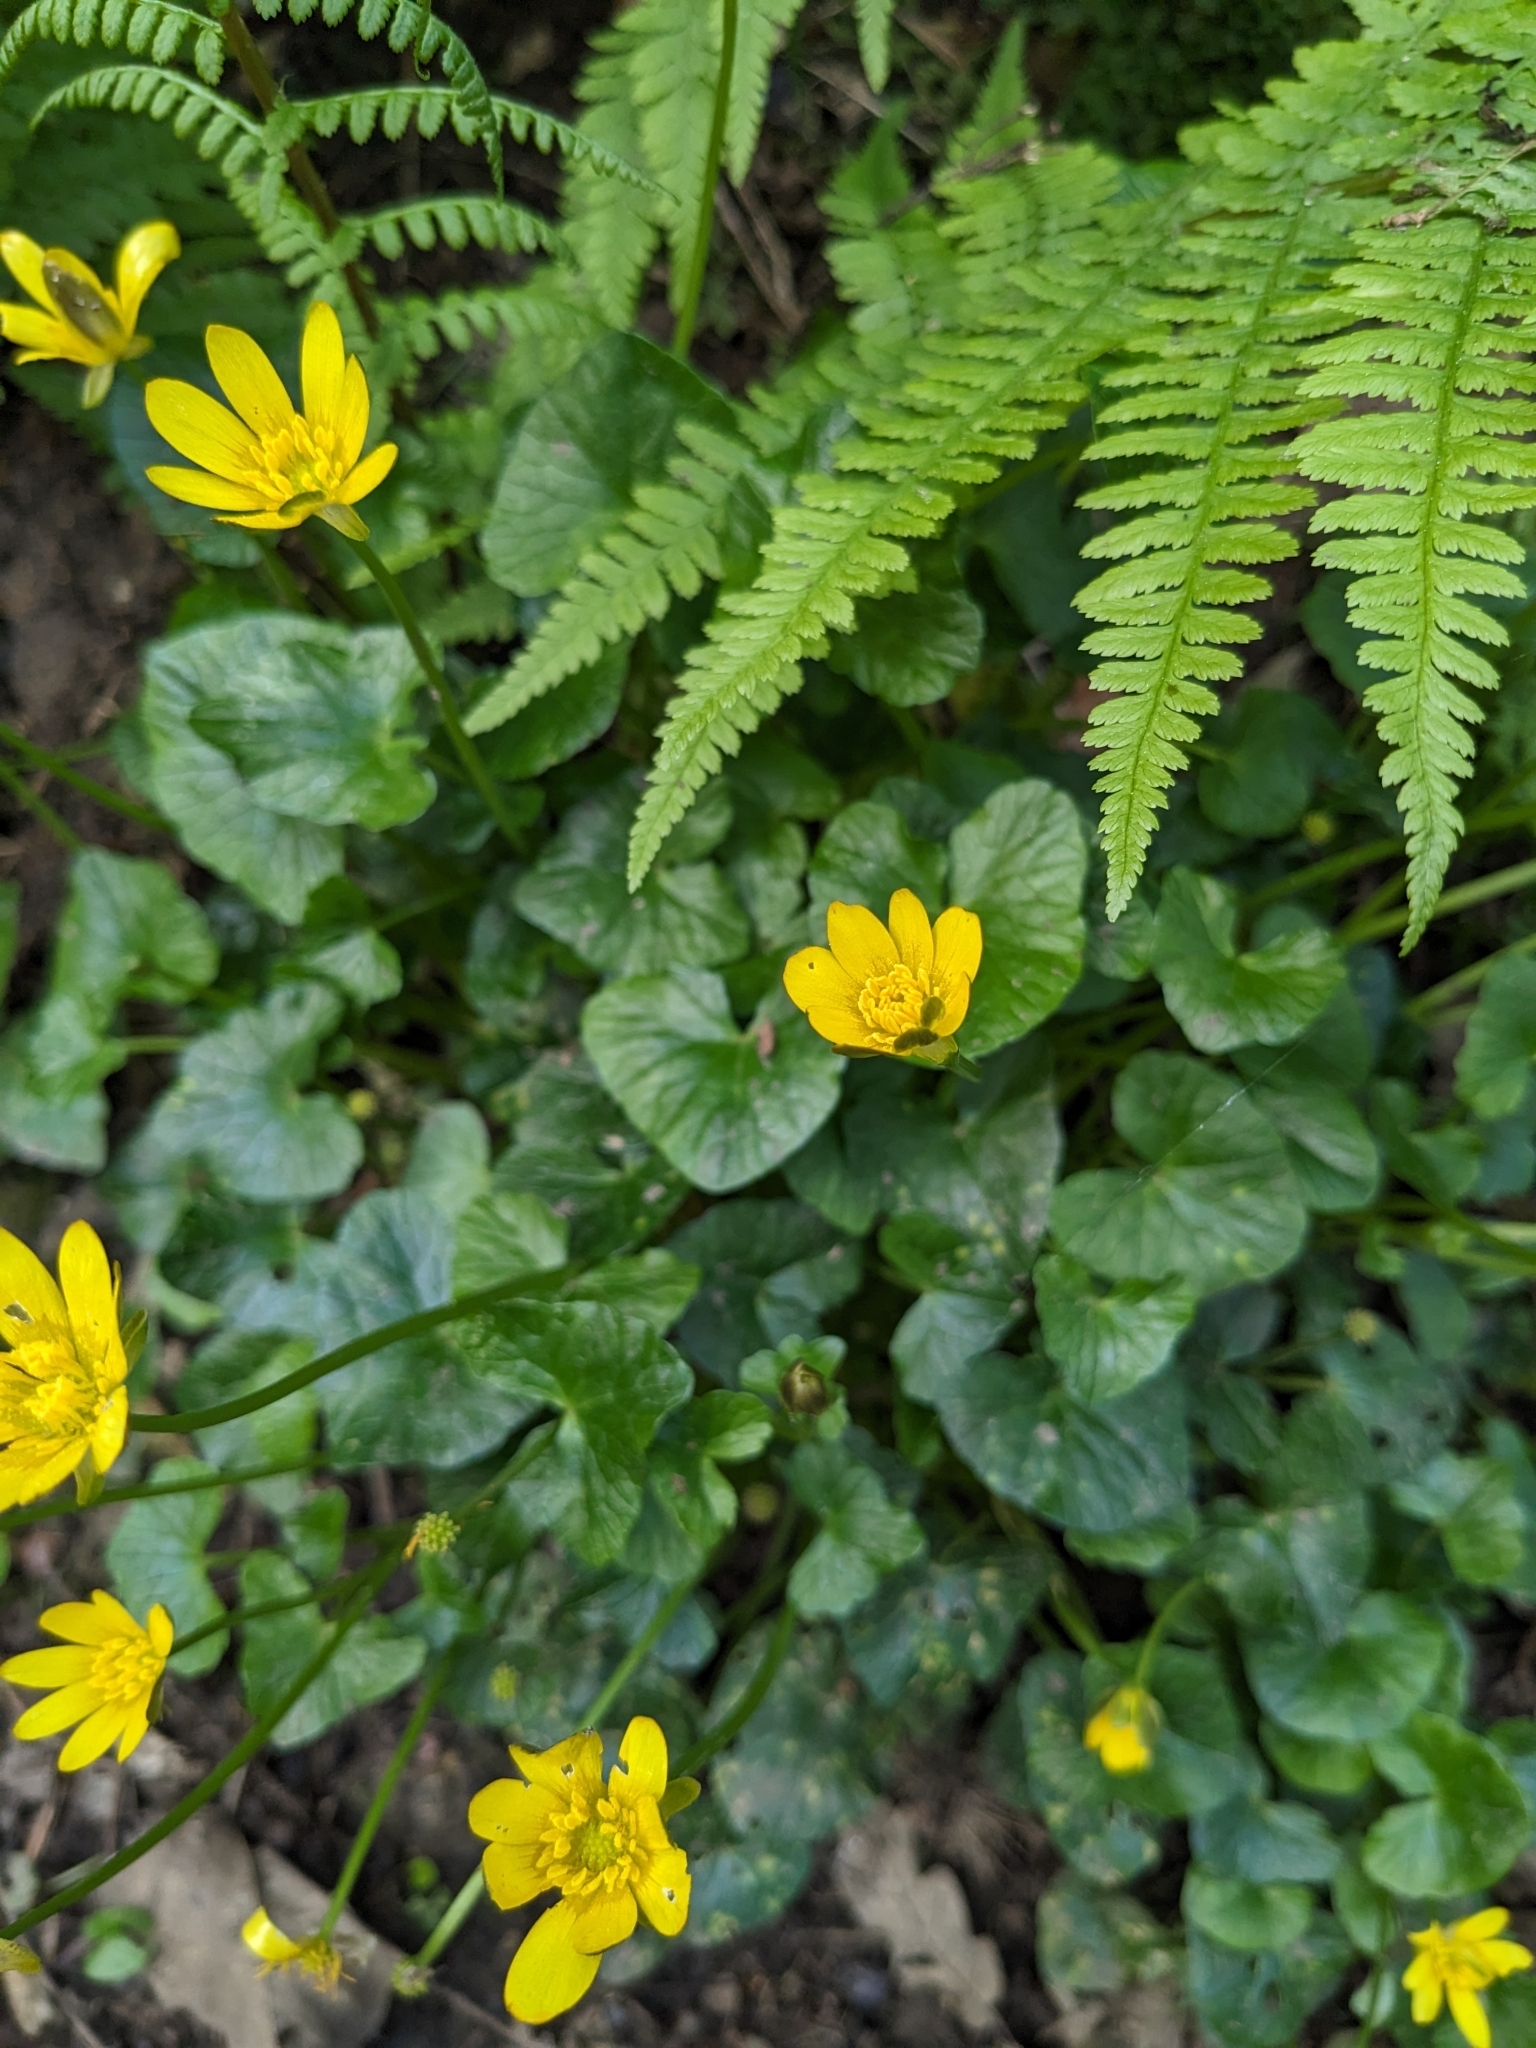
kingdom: Plantae
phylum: Tracheophyta
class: Magnoliopsida
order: Ranunculales
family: Ranunculaceae
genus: Caltha
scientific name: Caltha palustris
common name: Marsh marigold
